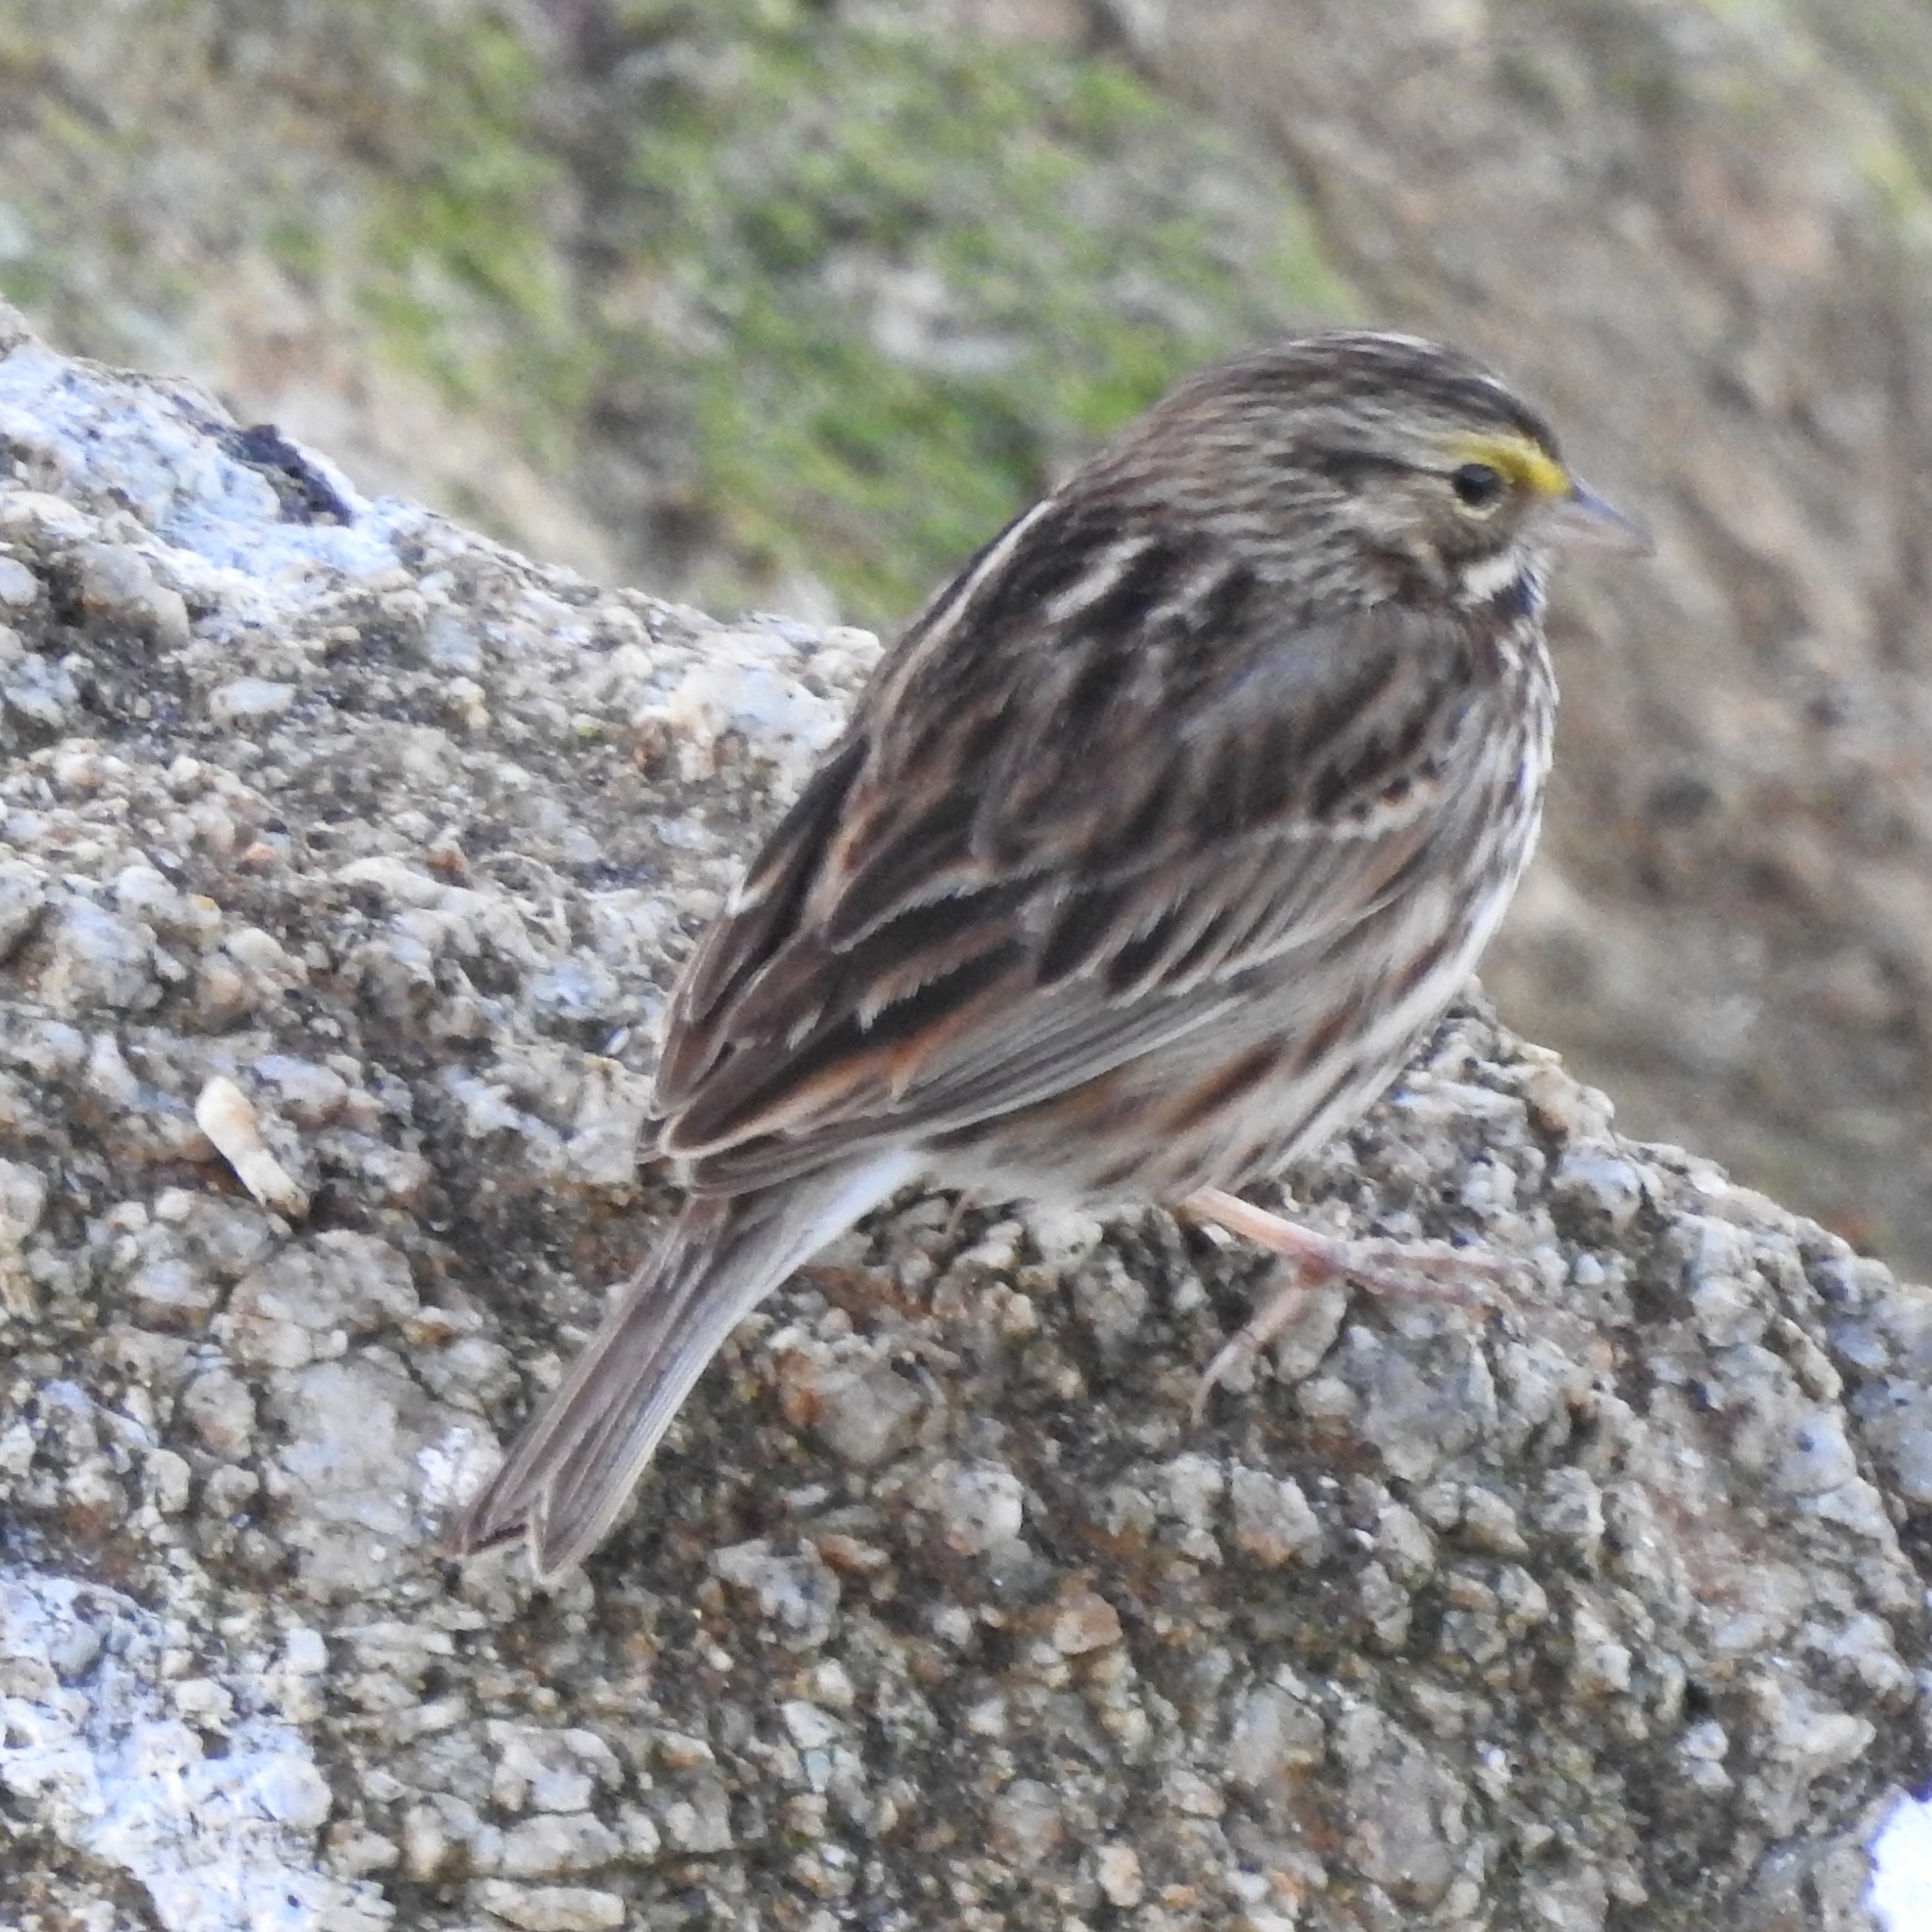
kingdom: Animalia
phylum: Chordata
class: Aves
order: Passeriformes
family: Passerellidae
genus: Passerculus
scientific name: Passerculus sandwichensis
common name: Savannah sparrow
